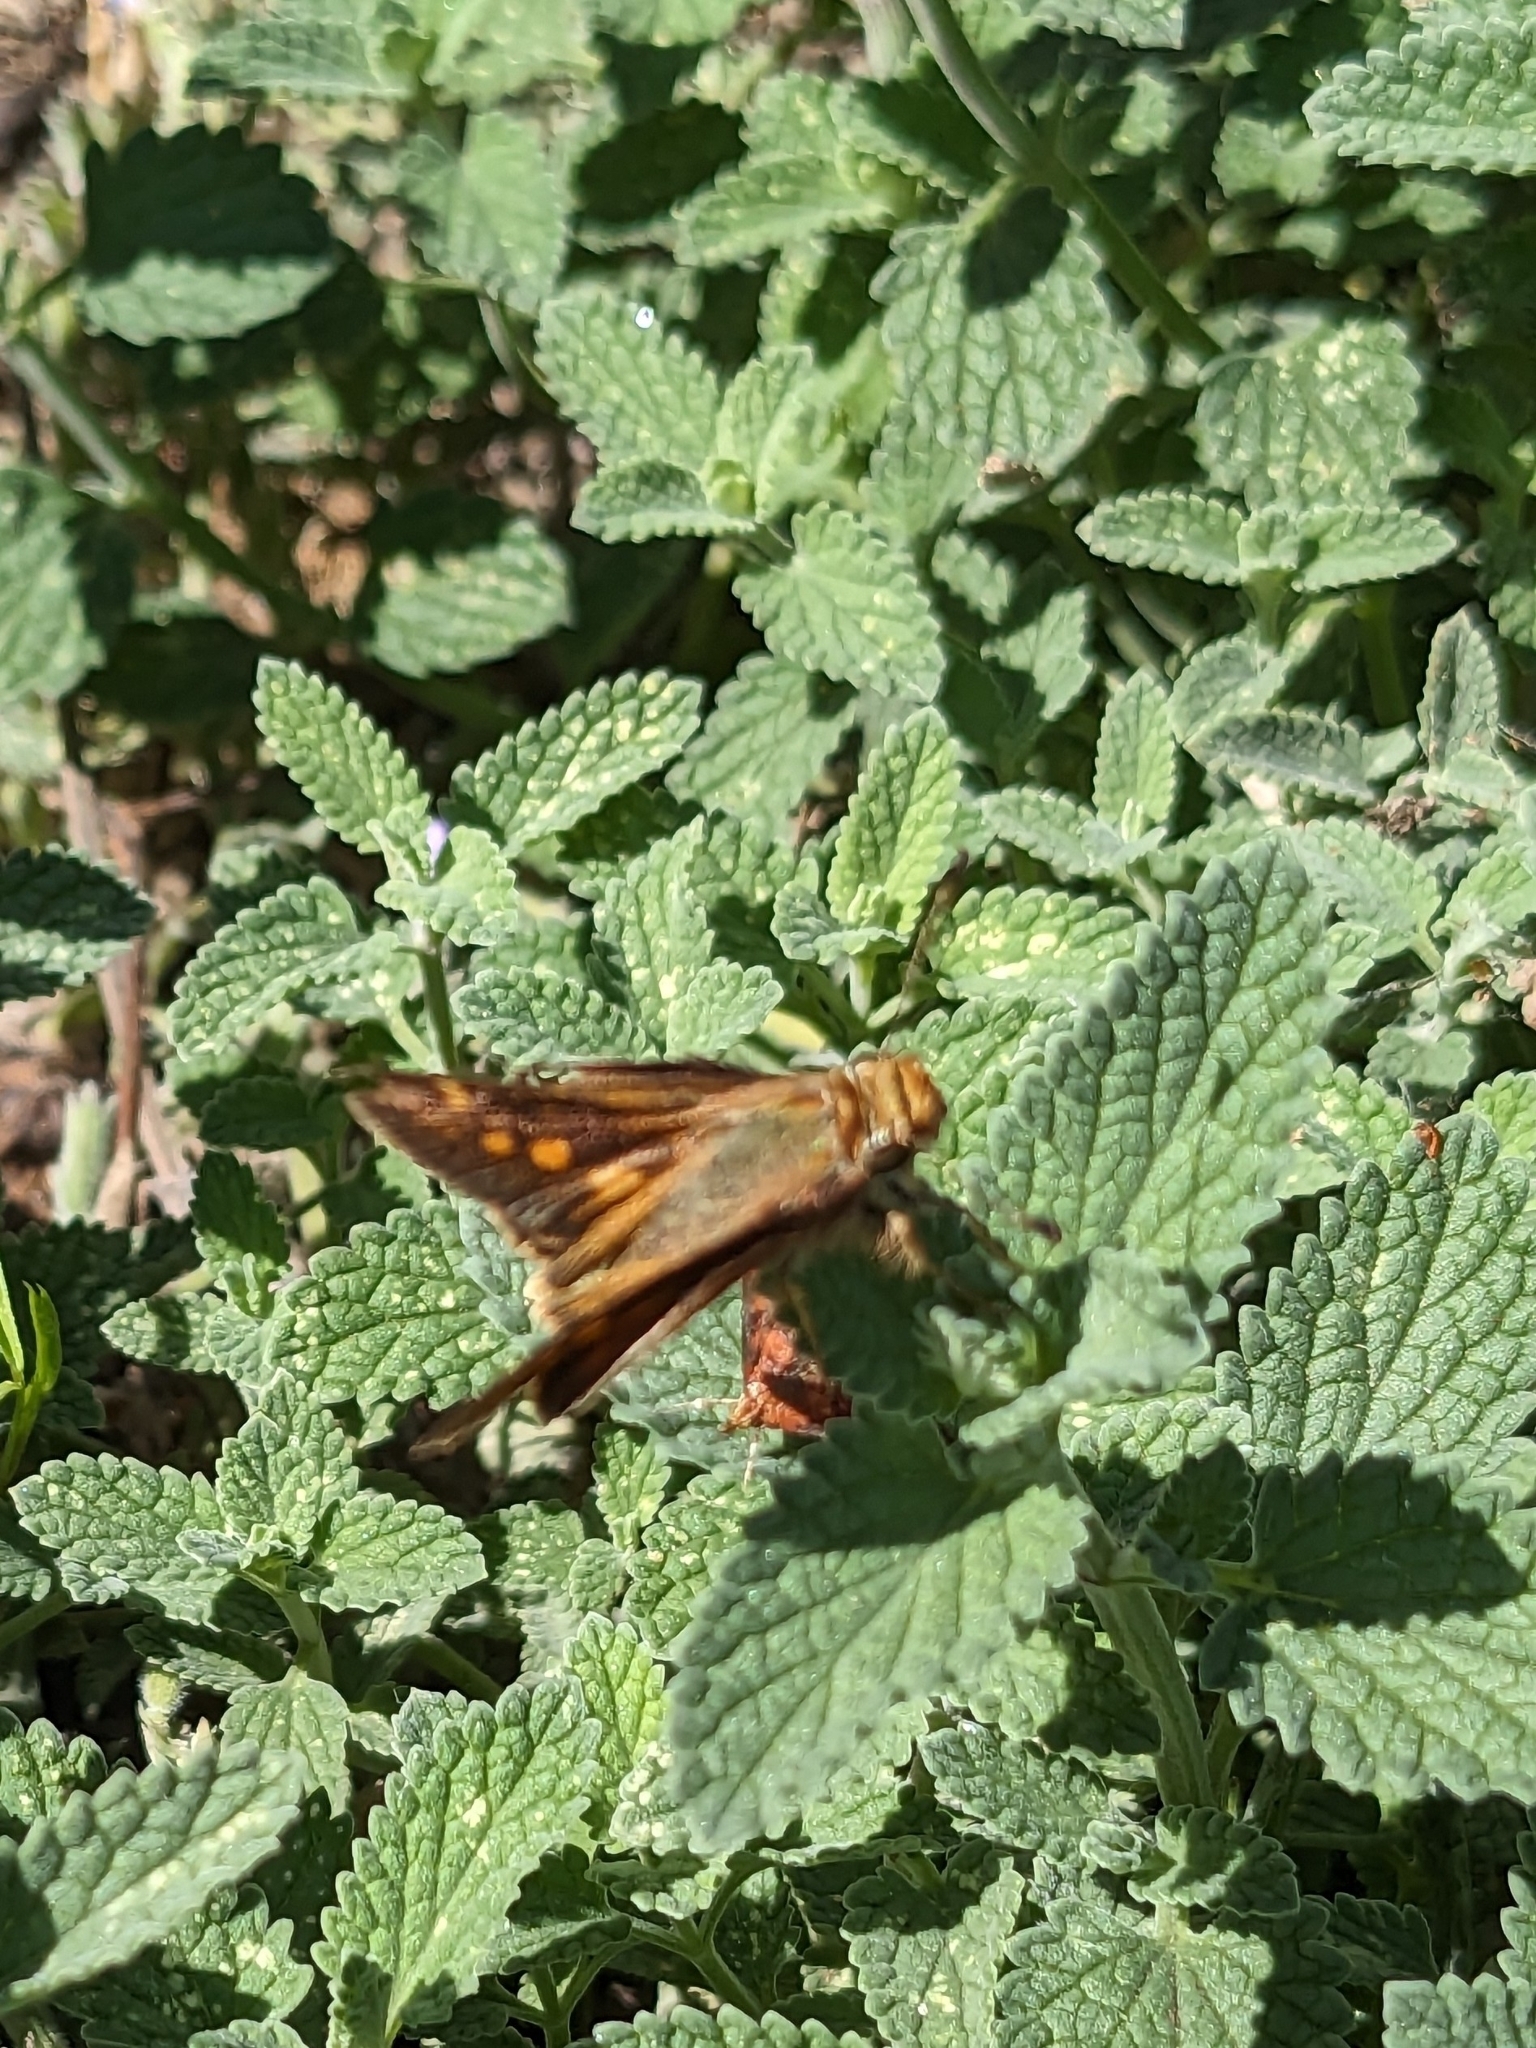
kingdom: Animalia
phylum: Arthropoda
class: Insecta
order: Lepidoptera
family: Hesperiidae
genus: Lon
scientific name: Lon melane
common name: Umber skipper
